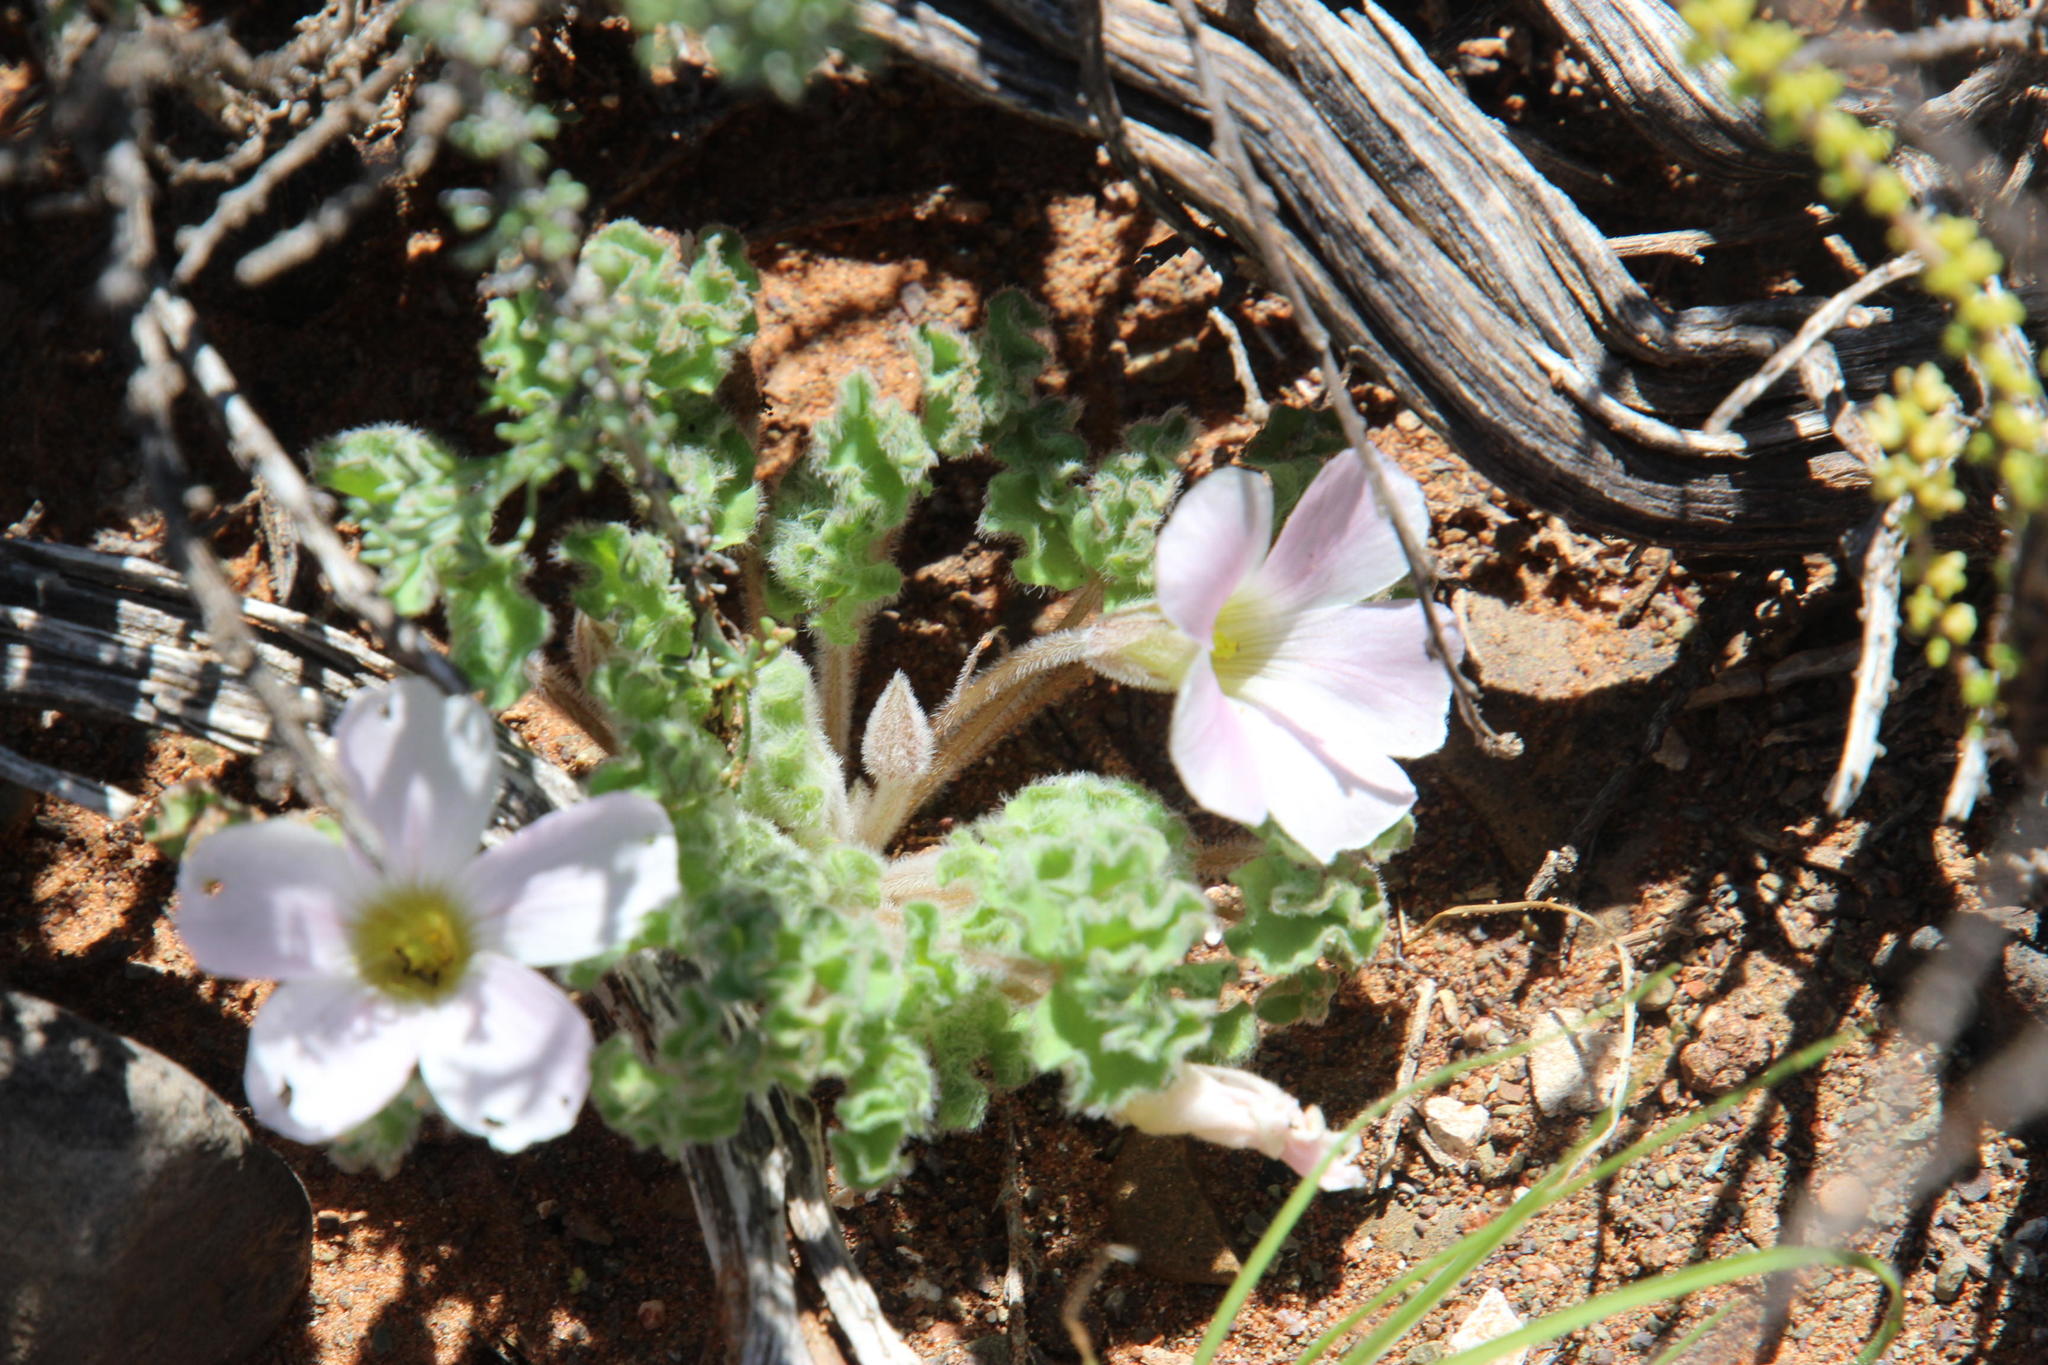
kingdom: Plantae
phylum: Tracheophyta
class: Magnoliopsida
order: Oxalidales
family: Oxalidaceae
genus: Oxalis
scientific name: Oxalis hirsuta
